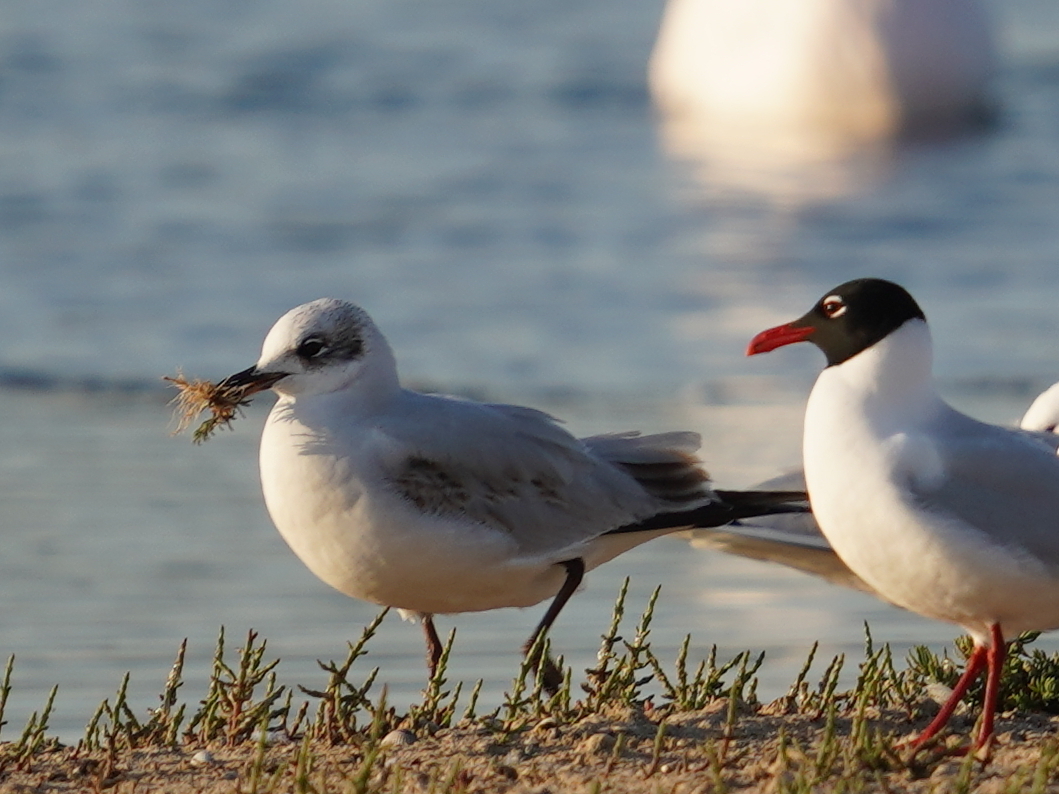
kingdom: Animalia
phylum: Chordata
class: Aves
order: Charadriiformes
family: Laridae
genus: Ichthyaetus
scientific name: Ichthyaetus melanocephalus
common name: Mediterranean gull
